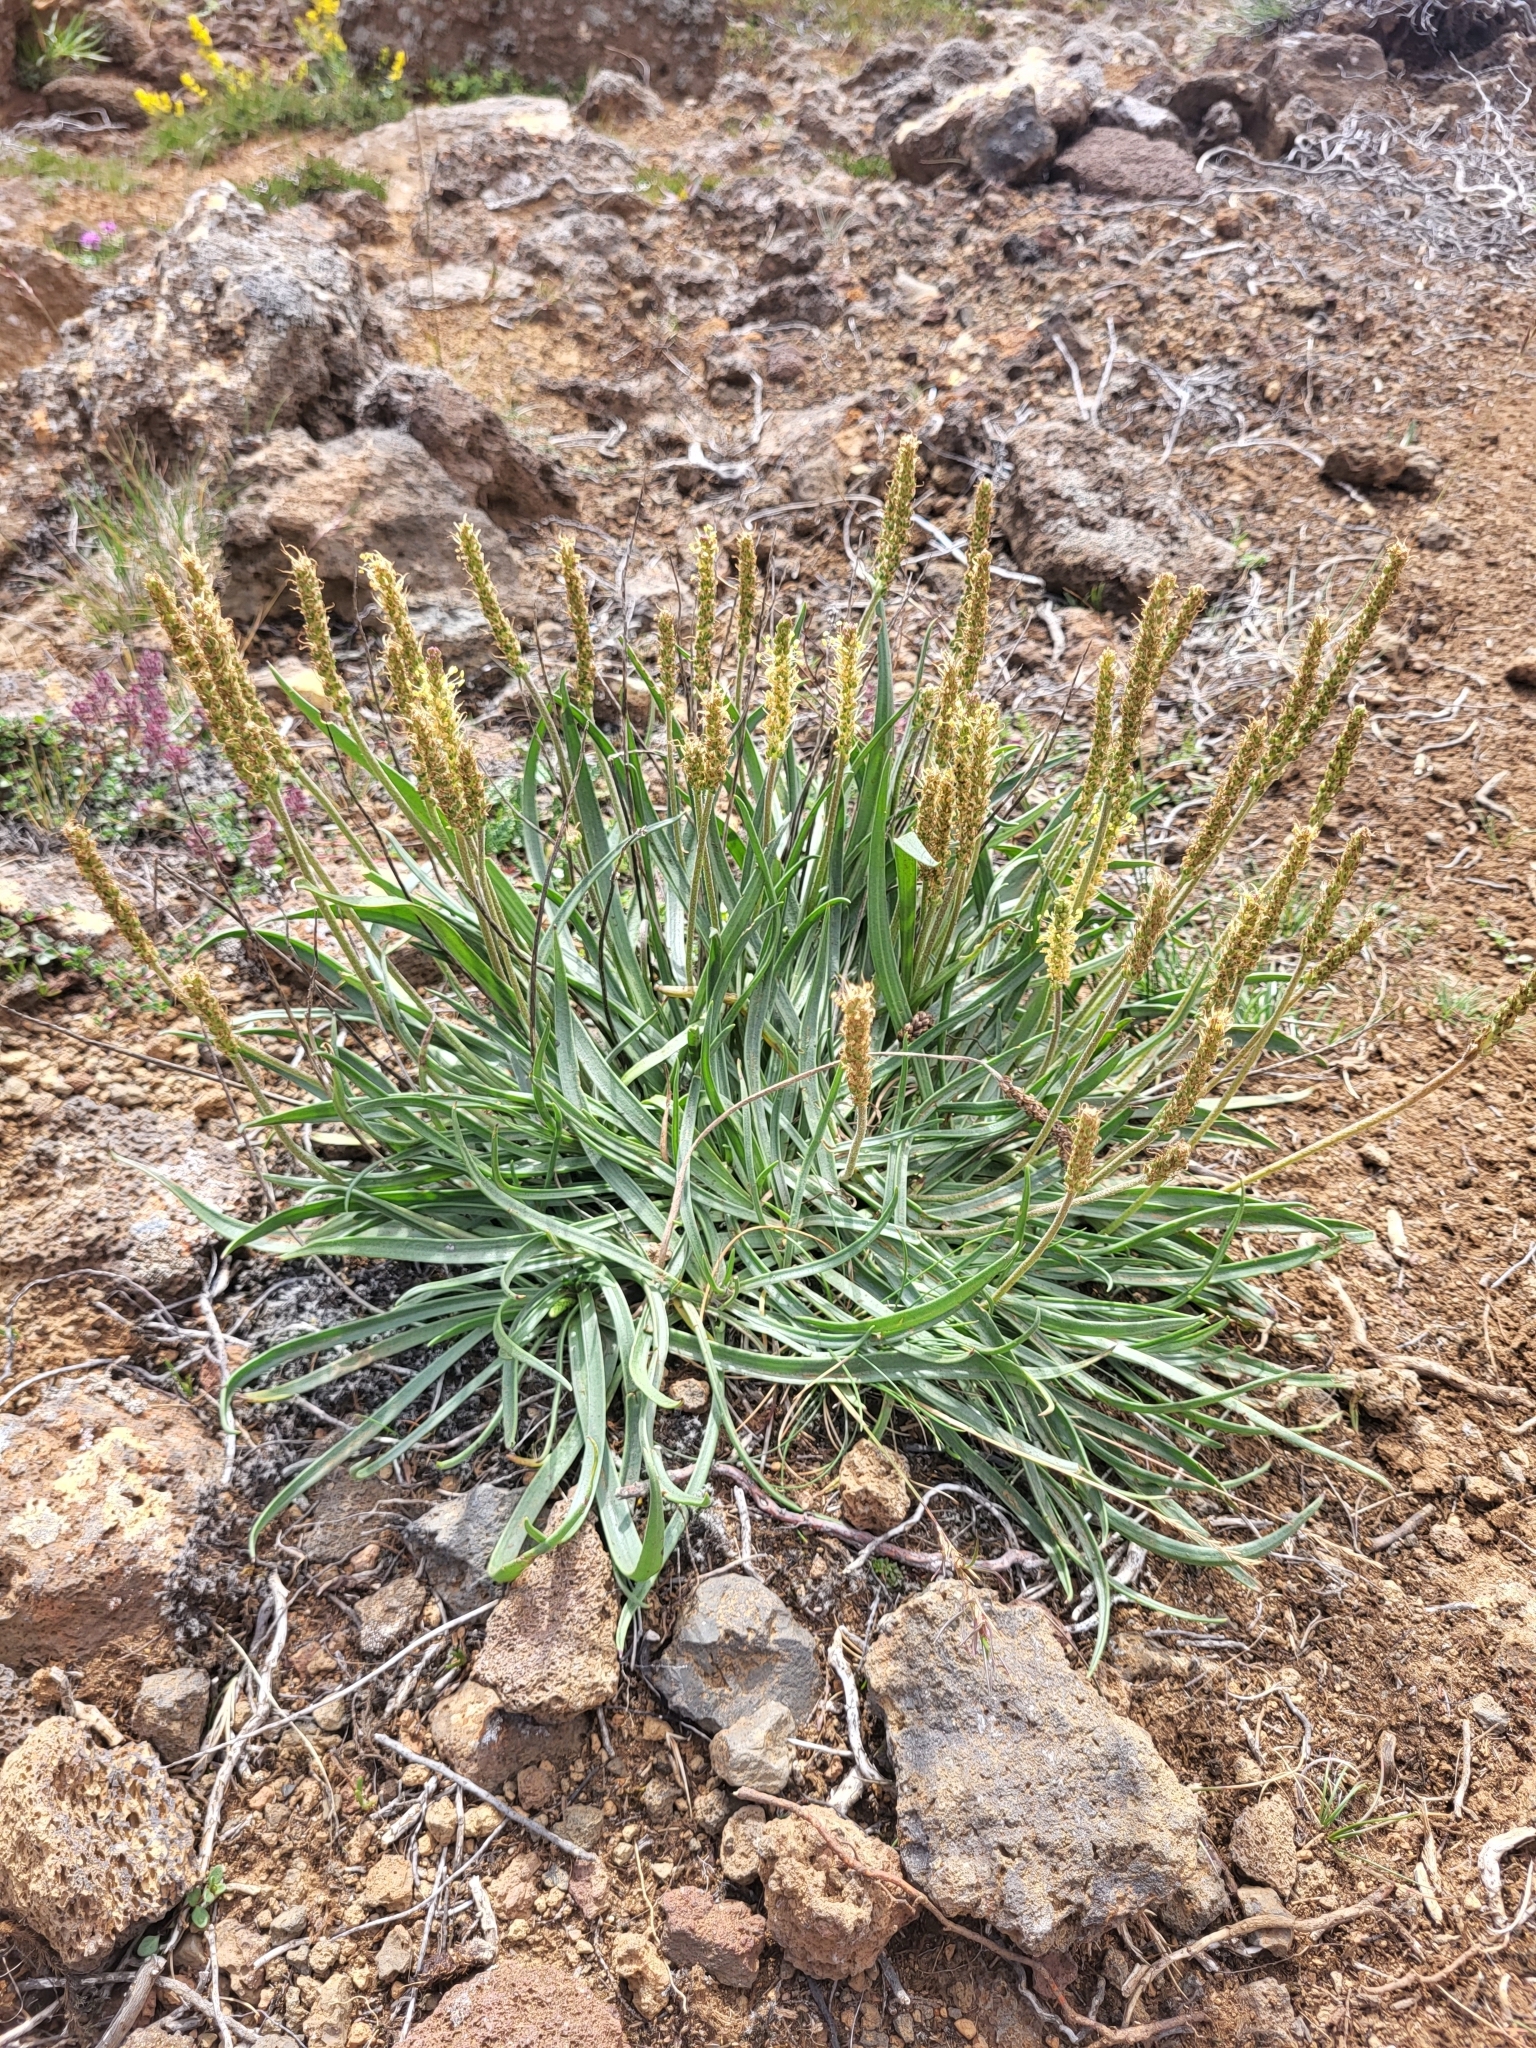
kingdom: Plantae
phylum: Tracheophyta
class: Magnoliopsida
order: Lamiales
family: Plantaginaceae
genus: Plantago
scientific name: Plantago maritima
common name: Sea plantain
